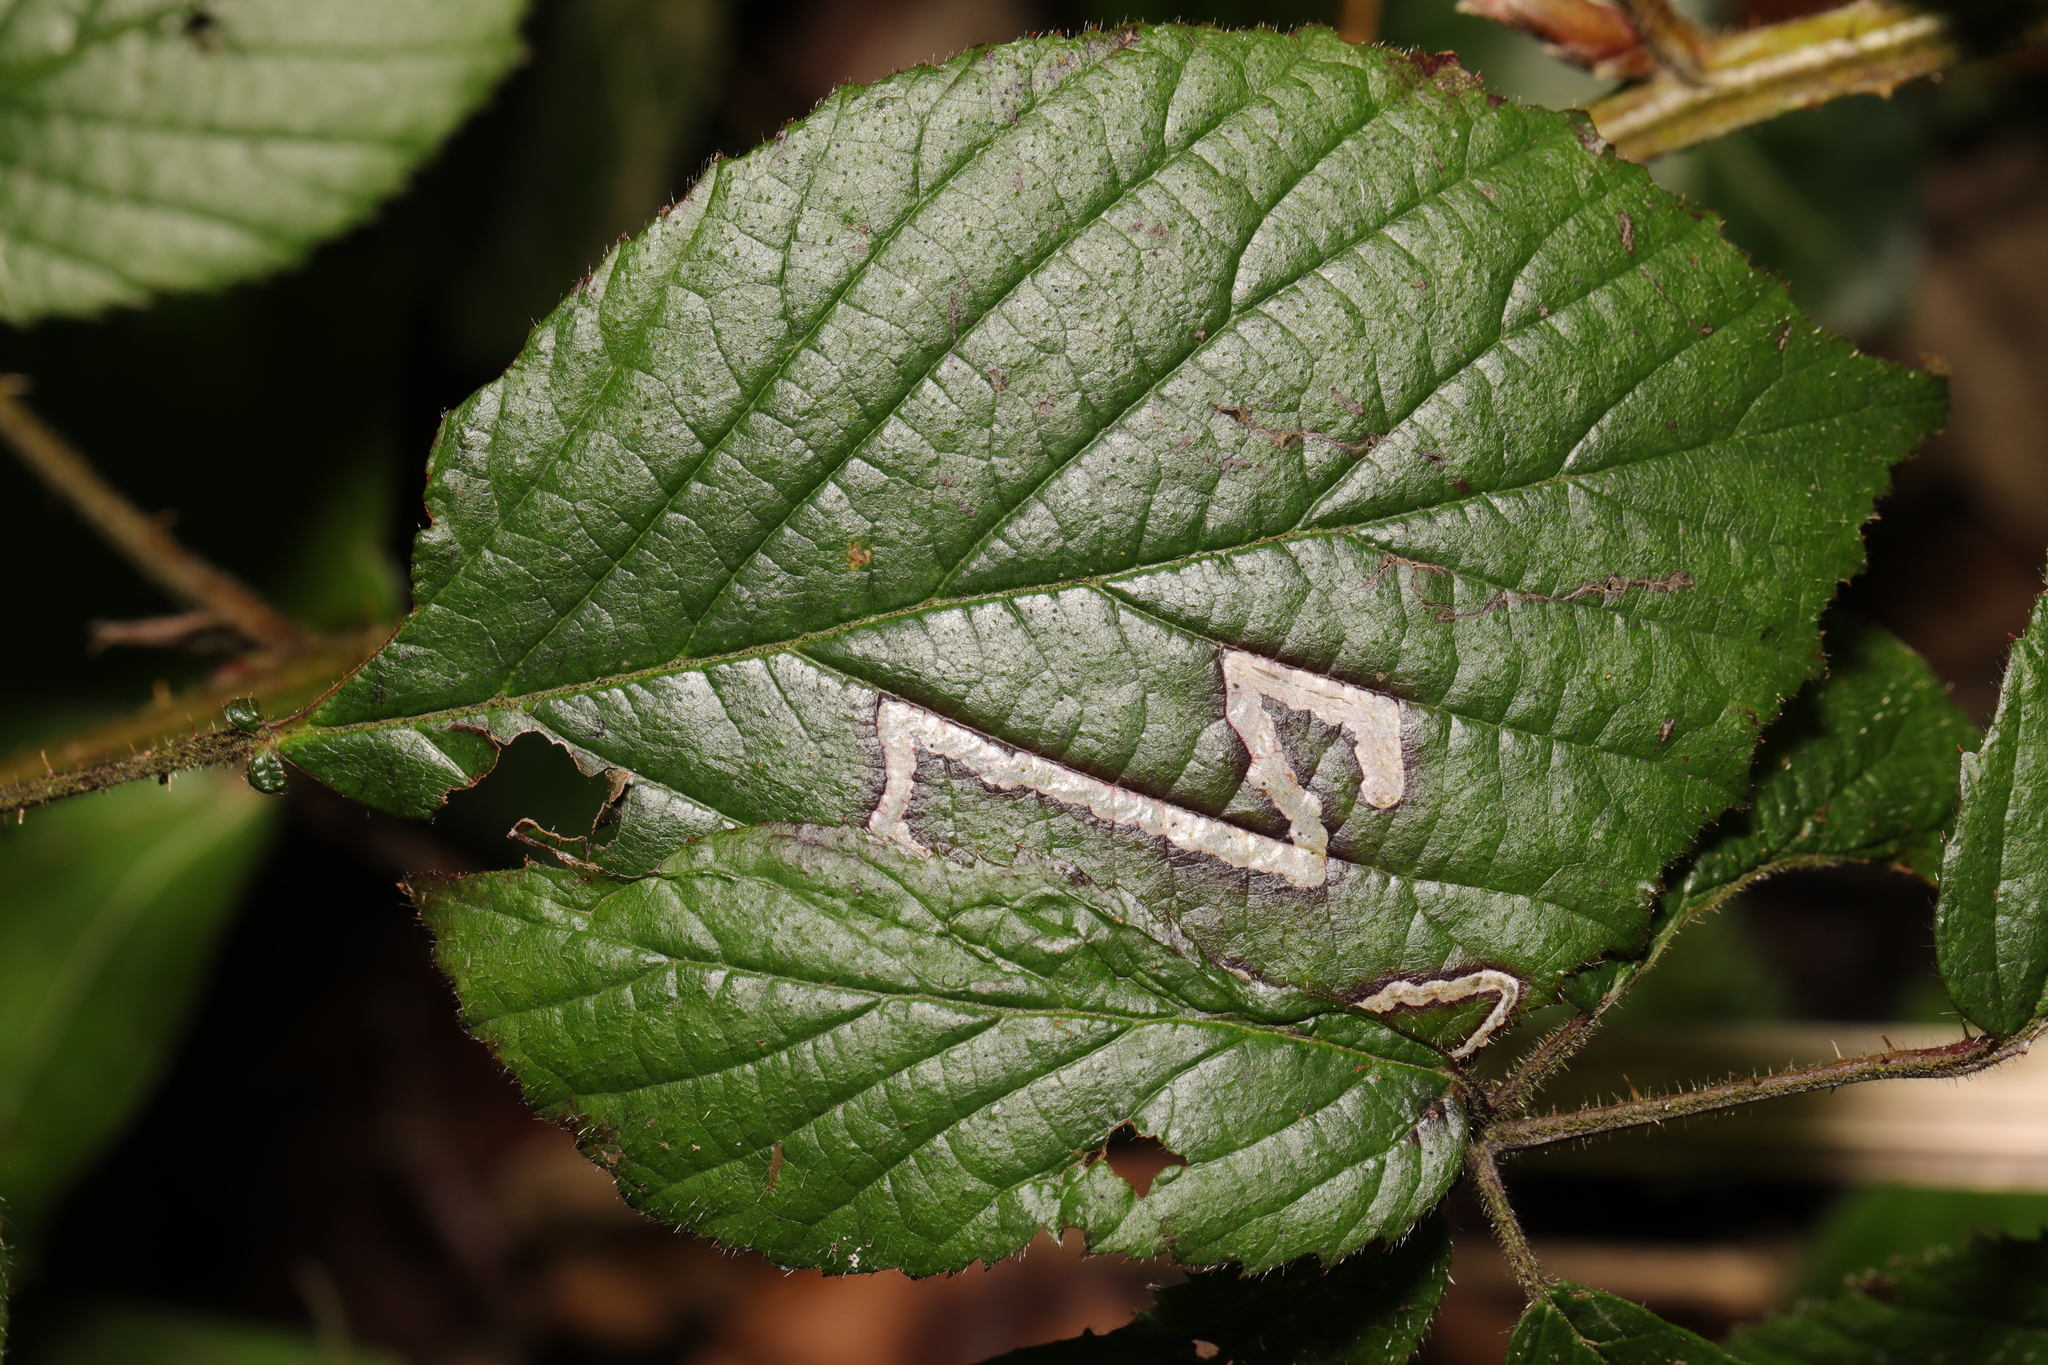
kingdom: Animalia
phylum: Arthropoda
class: Insecta
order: Lepidoptera
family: Nepticulidae
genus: Stigmella
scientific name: Stigmella aurella
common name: Golden pigmy
